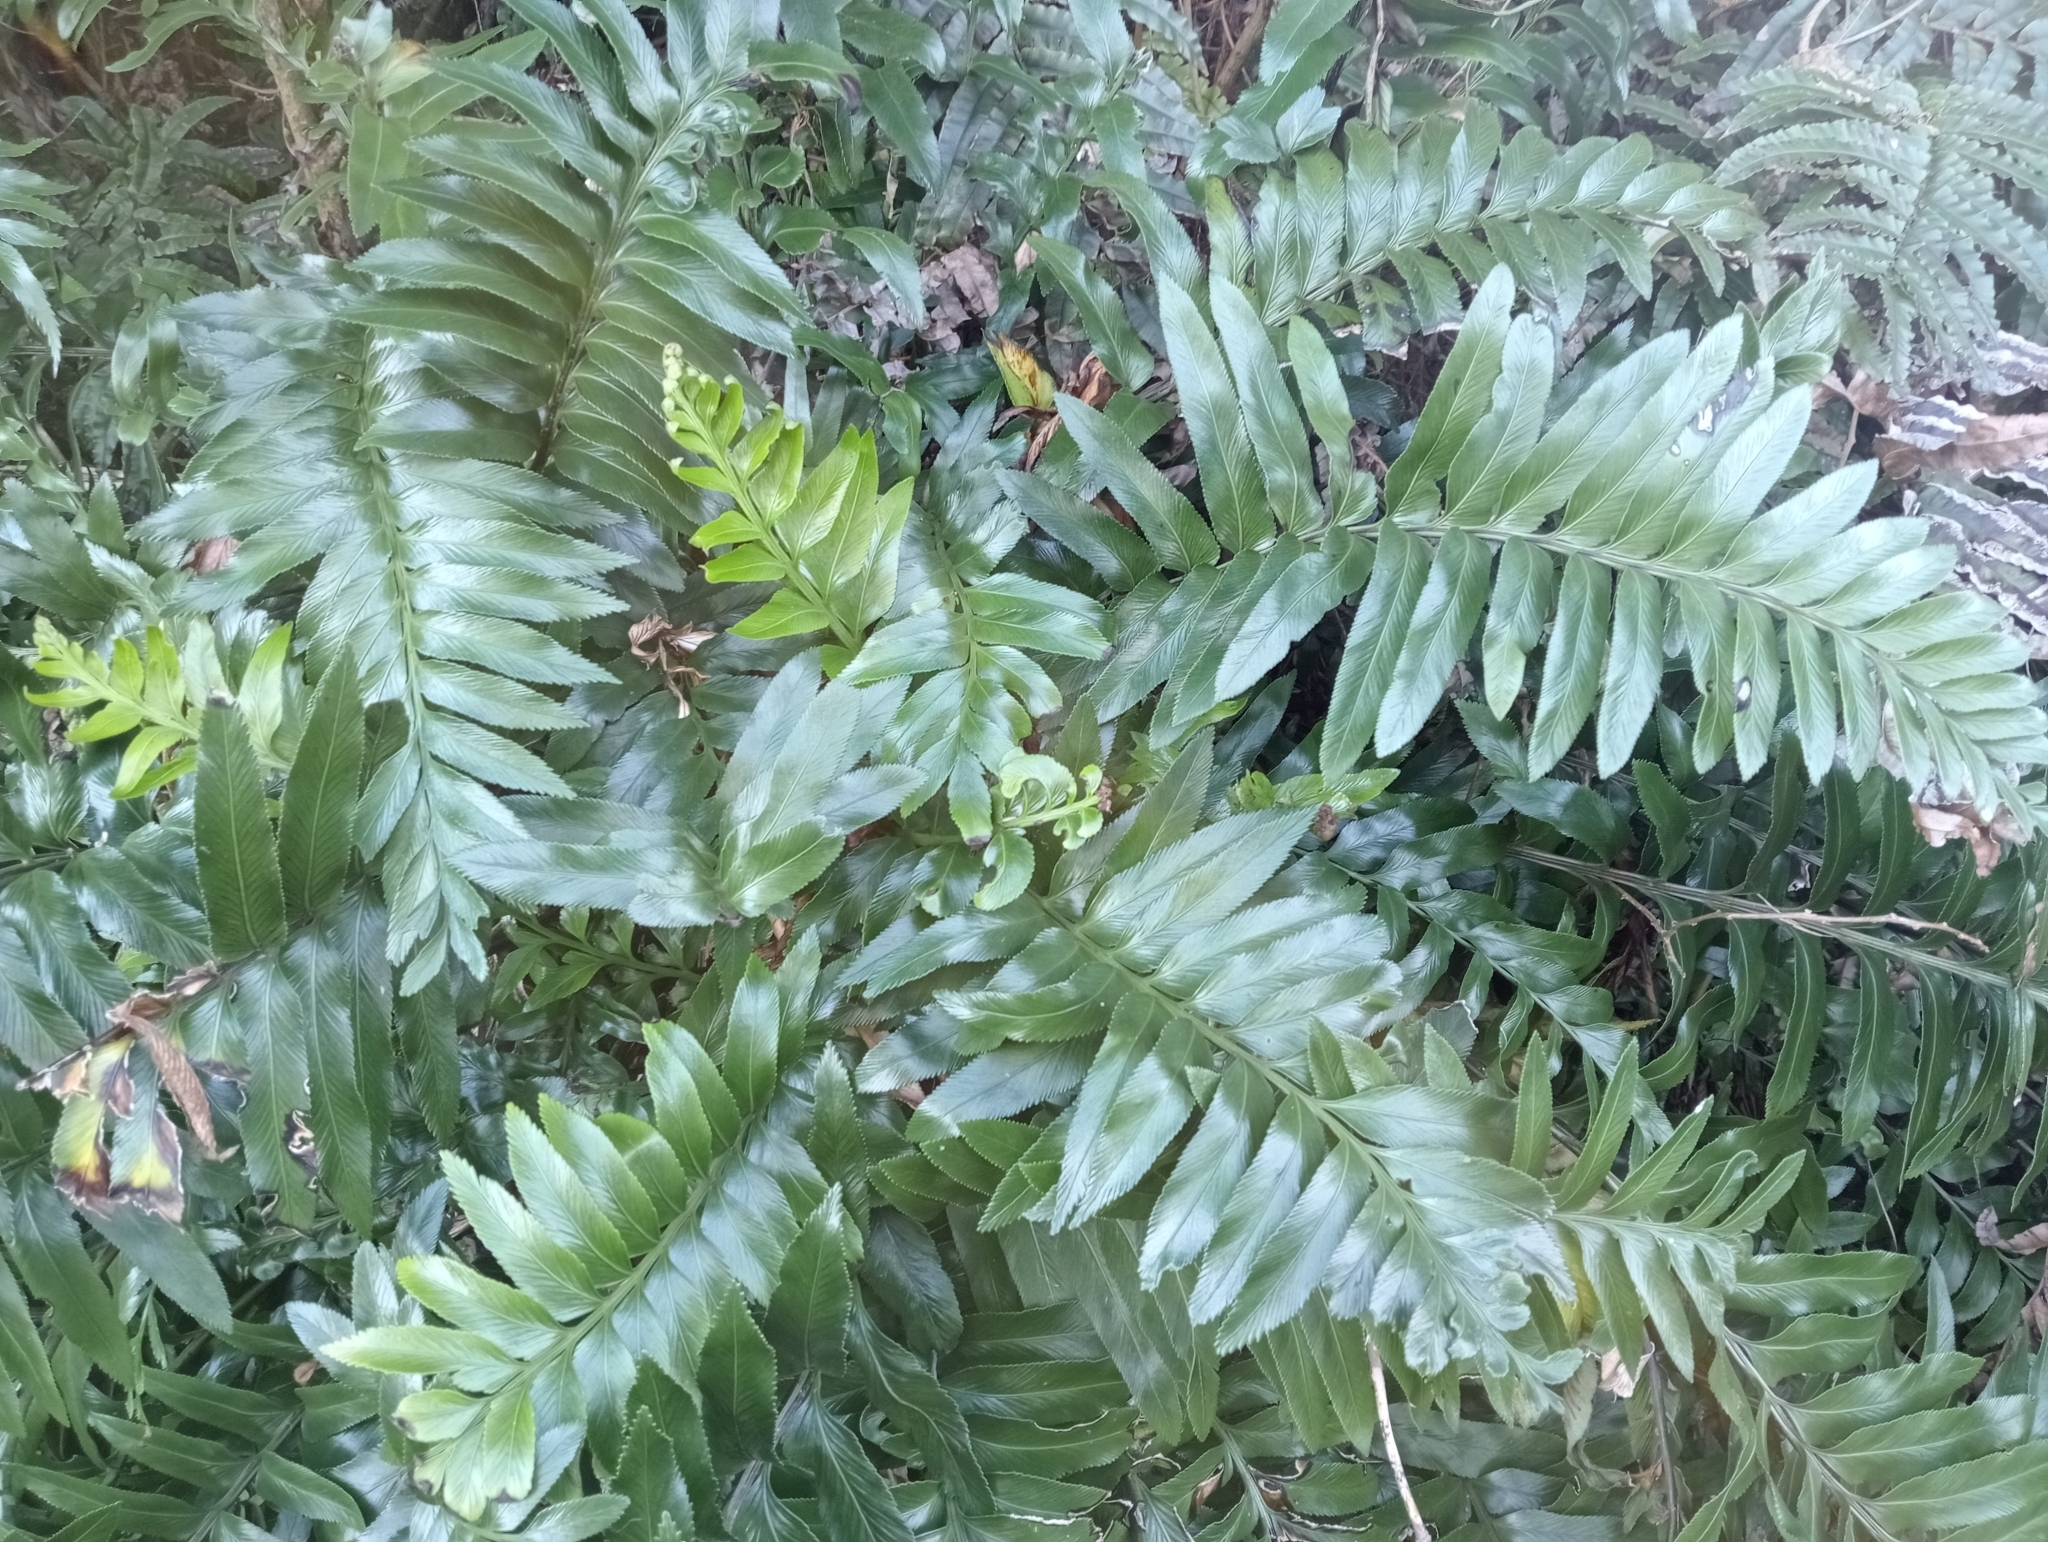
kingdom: Plantae
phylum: Tracheophyta
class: Polypodiopsida
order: Polypodiales
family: Aspleniaceae
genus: Asplenium
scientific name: Asplenium obtusatum
